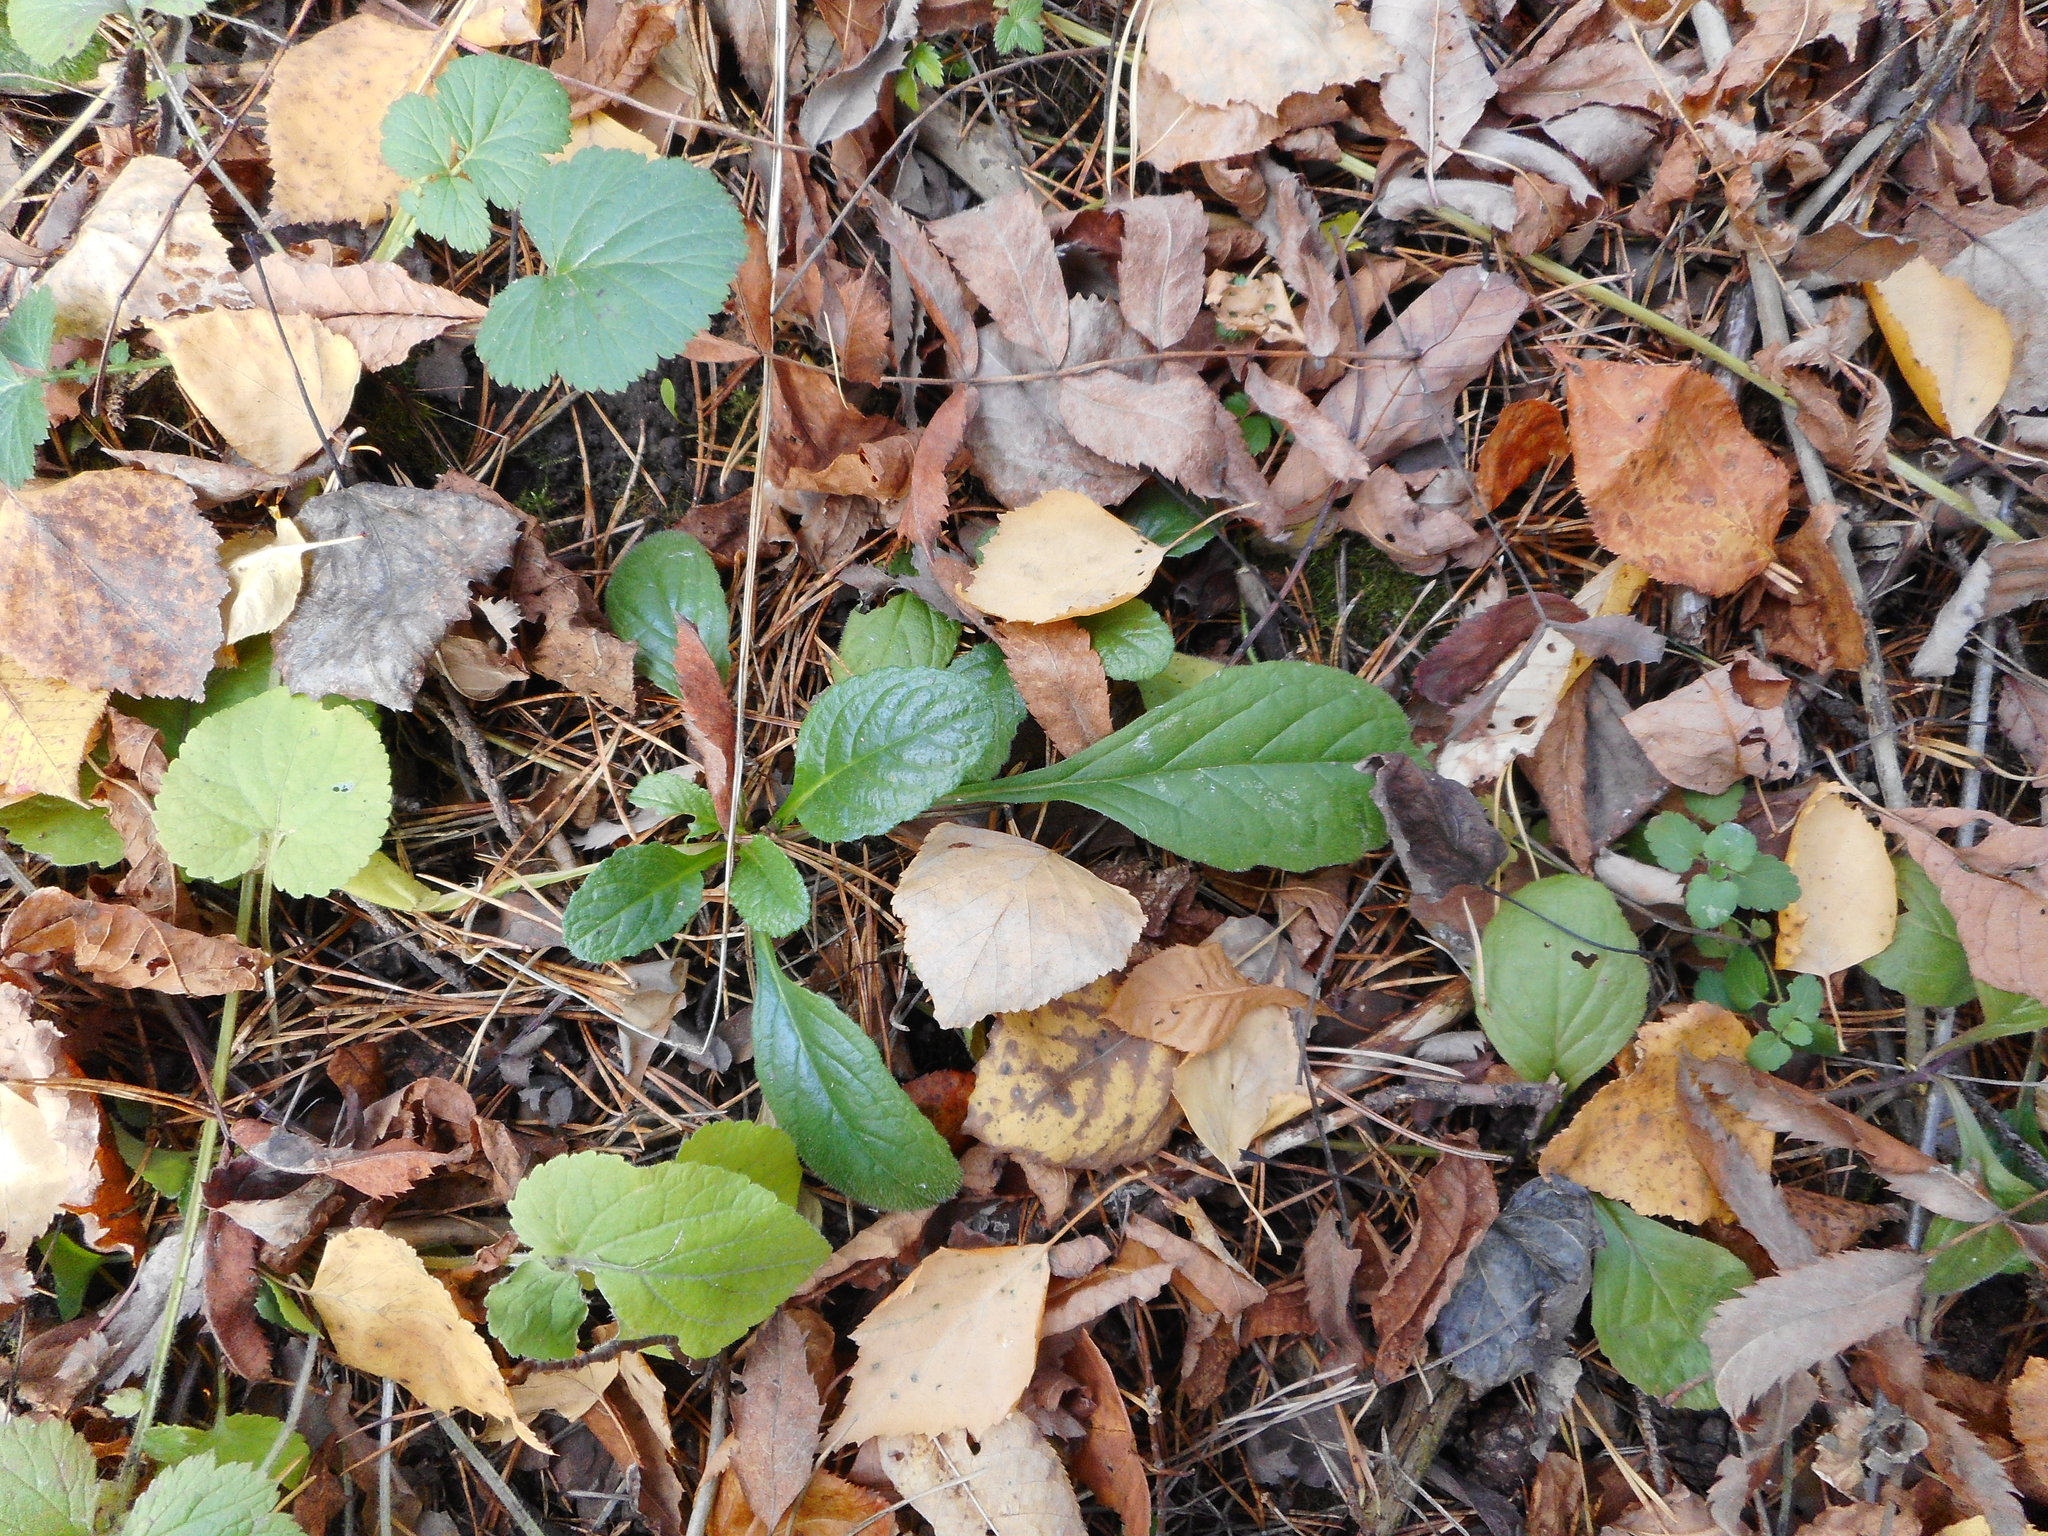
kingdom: Plantae
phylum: Tracheophyta
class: Magnoliopsida
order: Lamiales
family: Lamiaceae
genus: Ajuga
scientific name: Ajuga reptans
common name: Bugle
